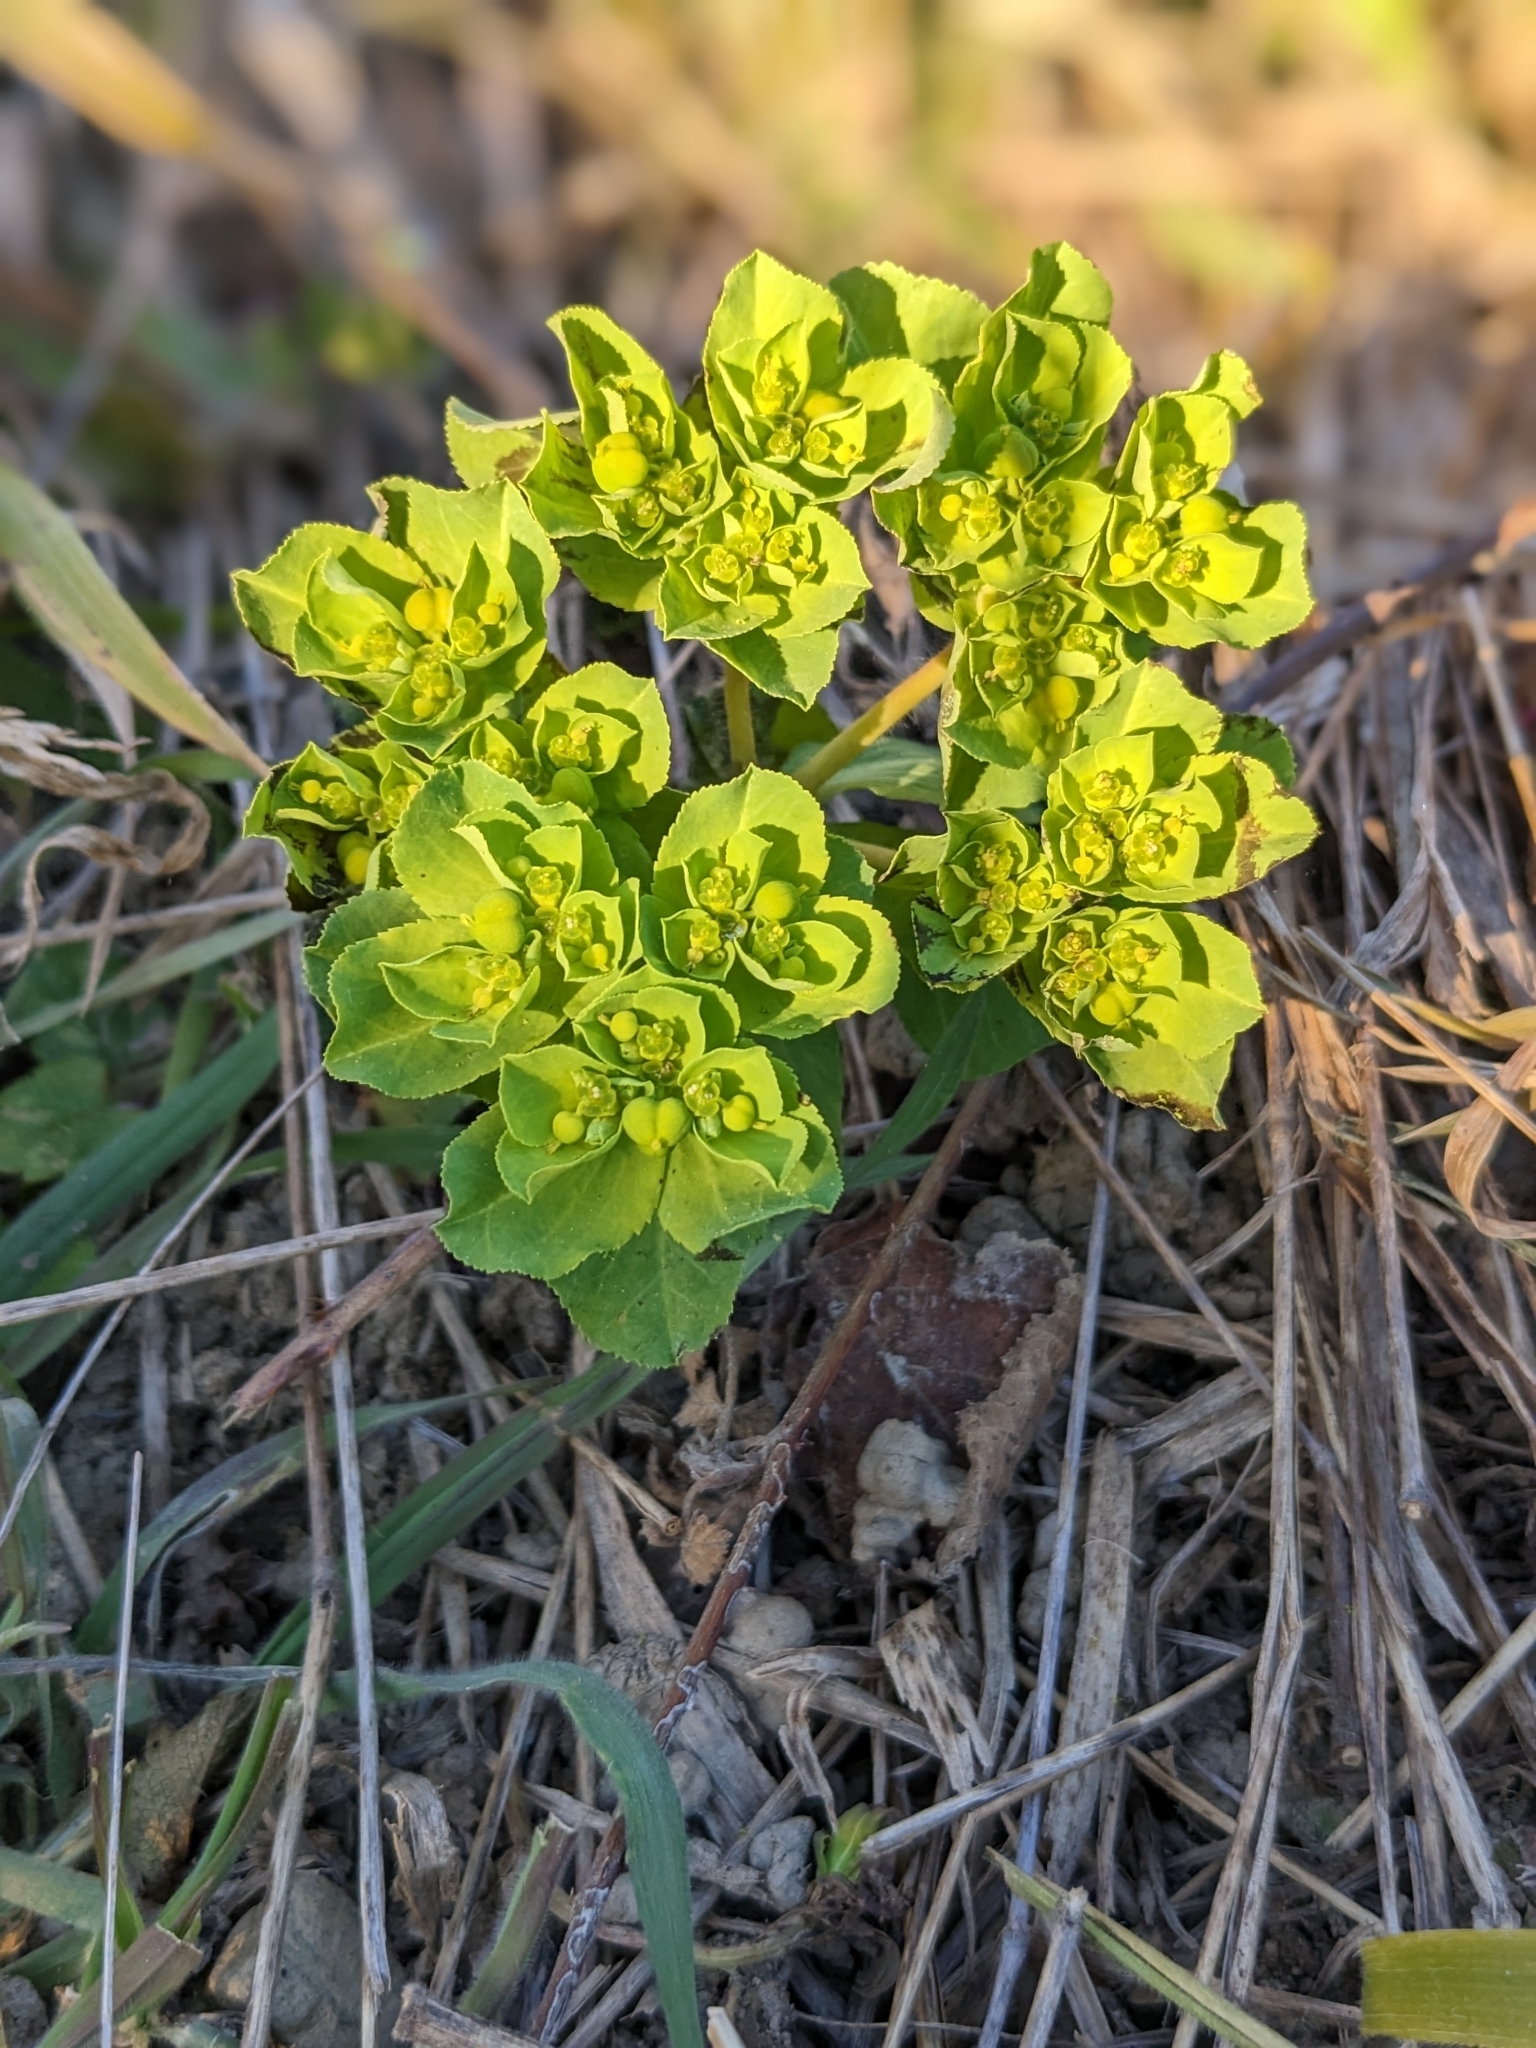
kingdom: Plantae
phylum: Tracheophyta
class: Magnoliopsida
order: Malpighiales
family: Euphorbiaceae
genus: Euphorbia
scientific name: Euphorbia helioscopia
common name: Sun spurge
